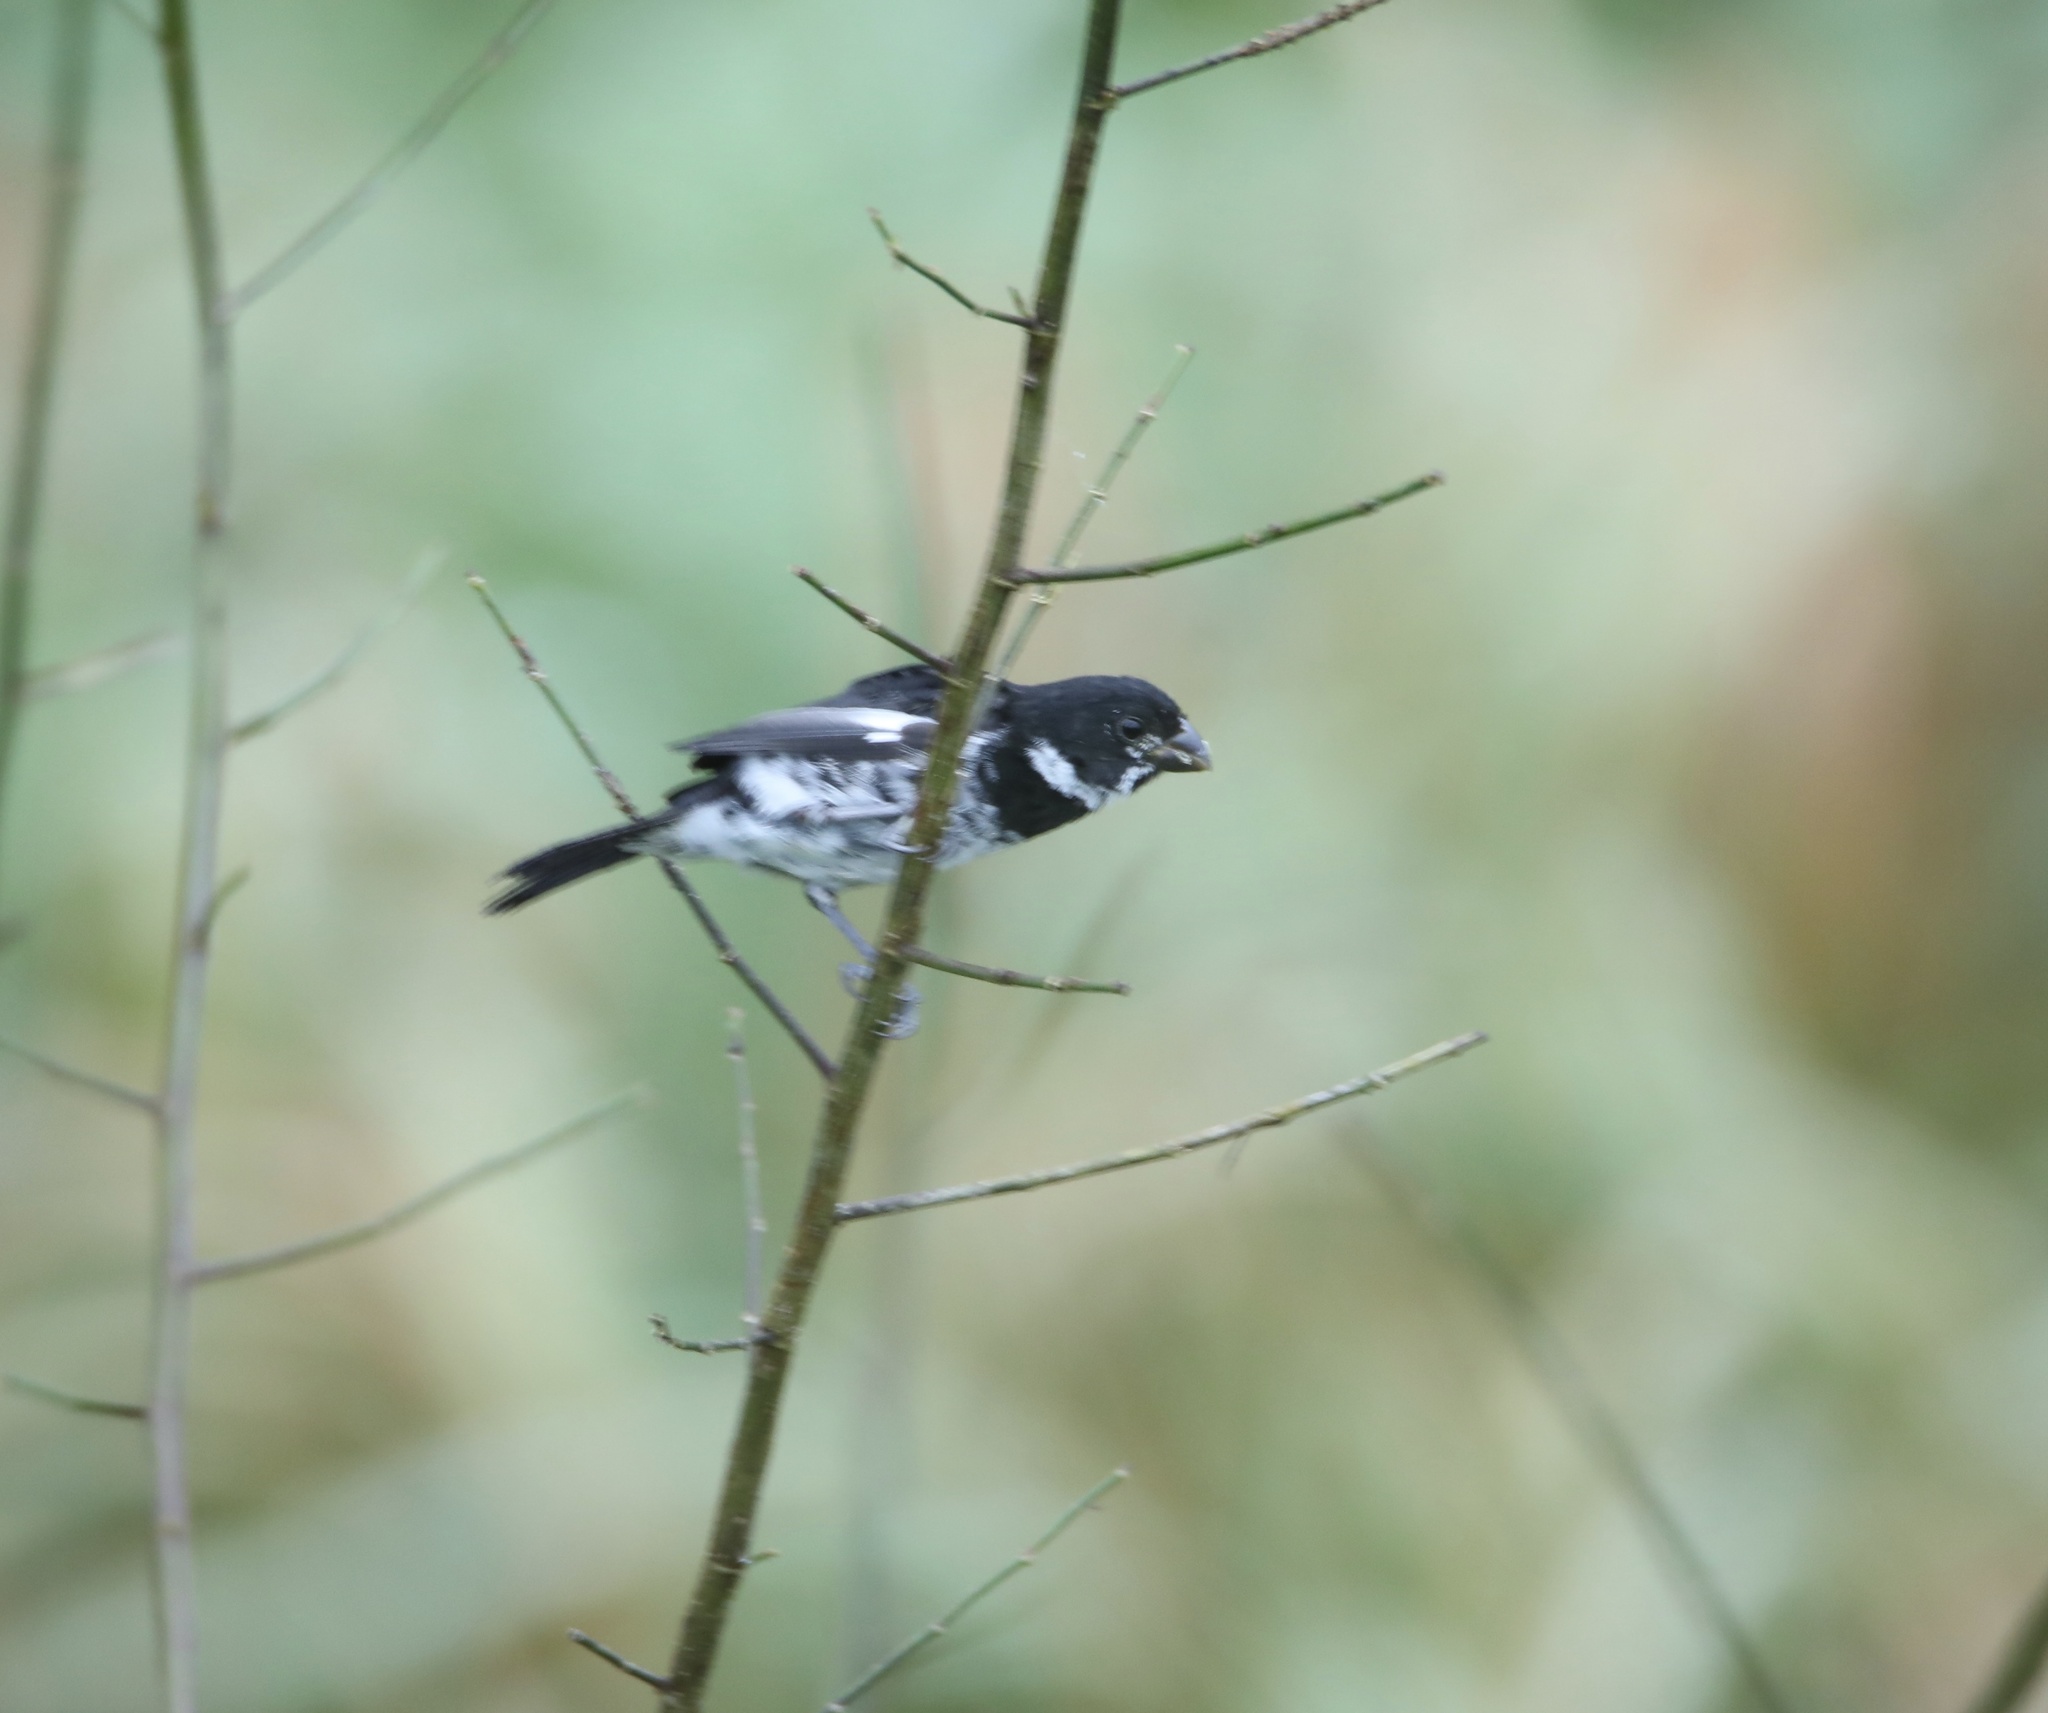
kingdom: Animalia
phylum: Chordata
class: Aves
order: Passeriformes
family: Thraupidae
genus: Sporophila
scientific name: Sporophila corvina
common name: Variable seedeater
